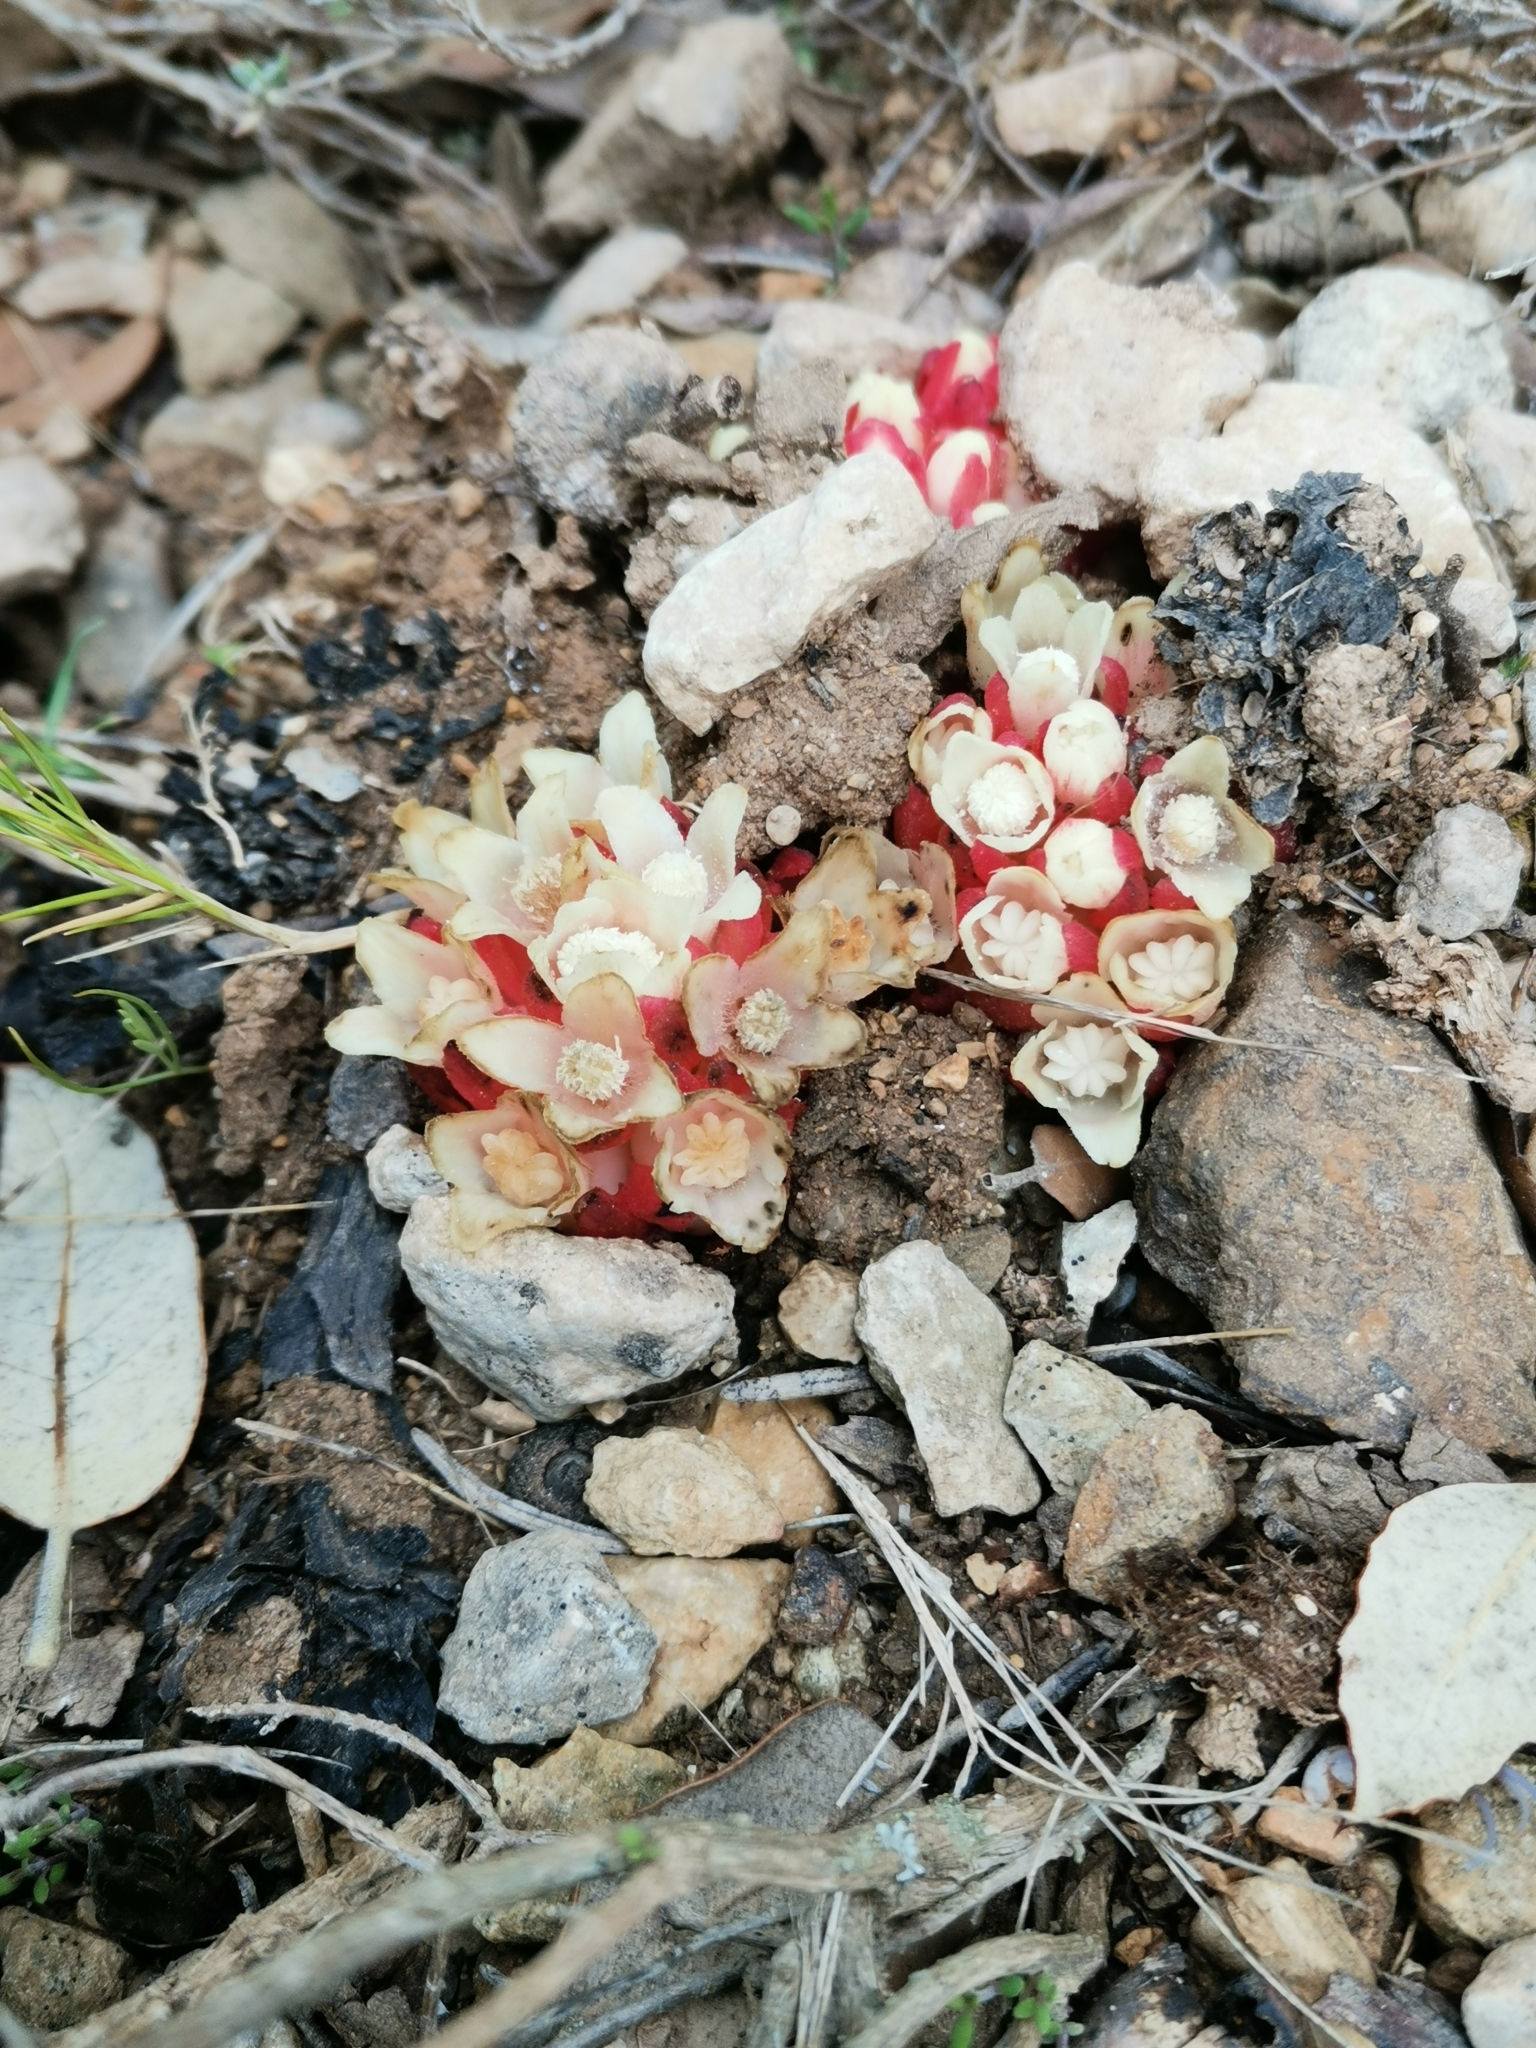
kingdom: Plantae
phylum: Tracheophyta
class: Magnoliopsida
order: Malvales
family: Cytinaceae
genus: Cytinus
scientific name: Cytinus ruber
